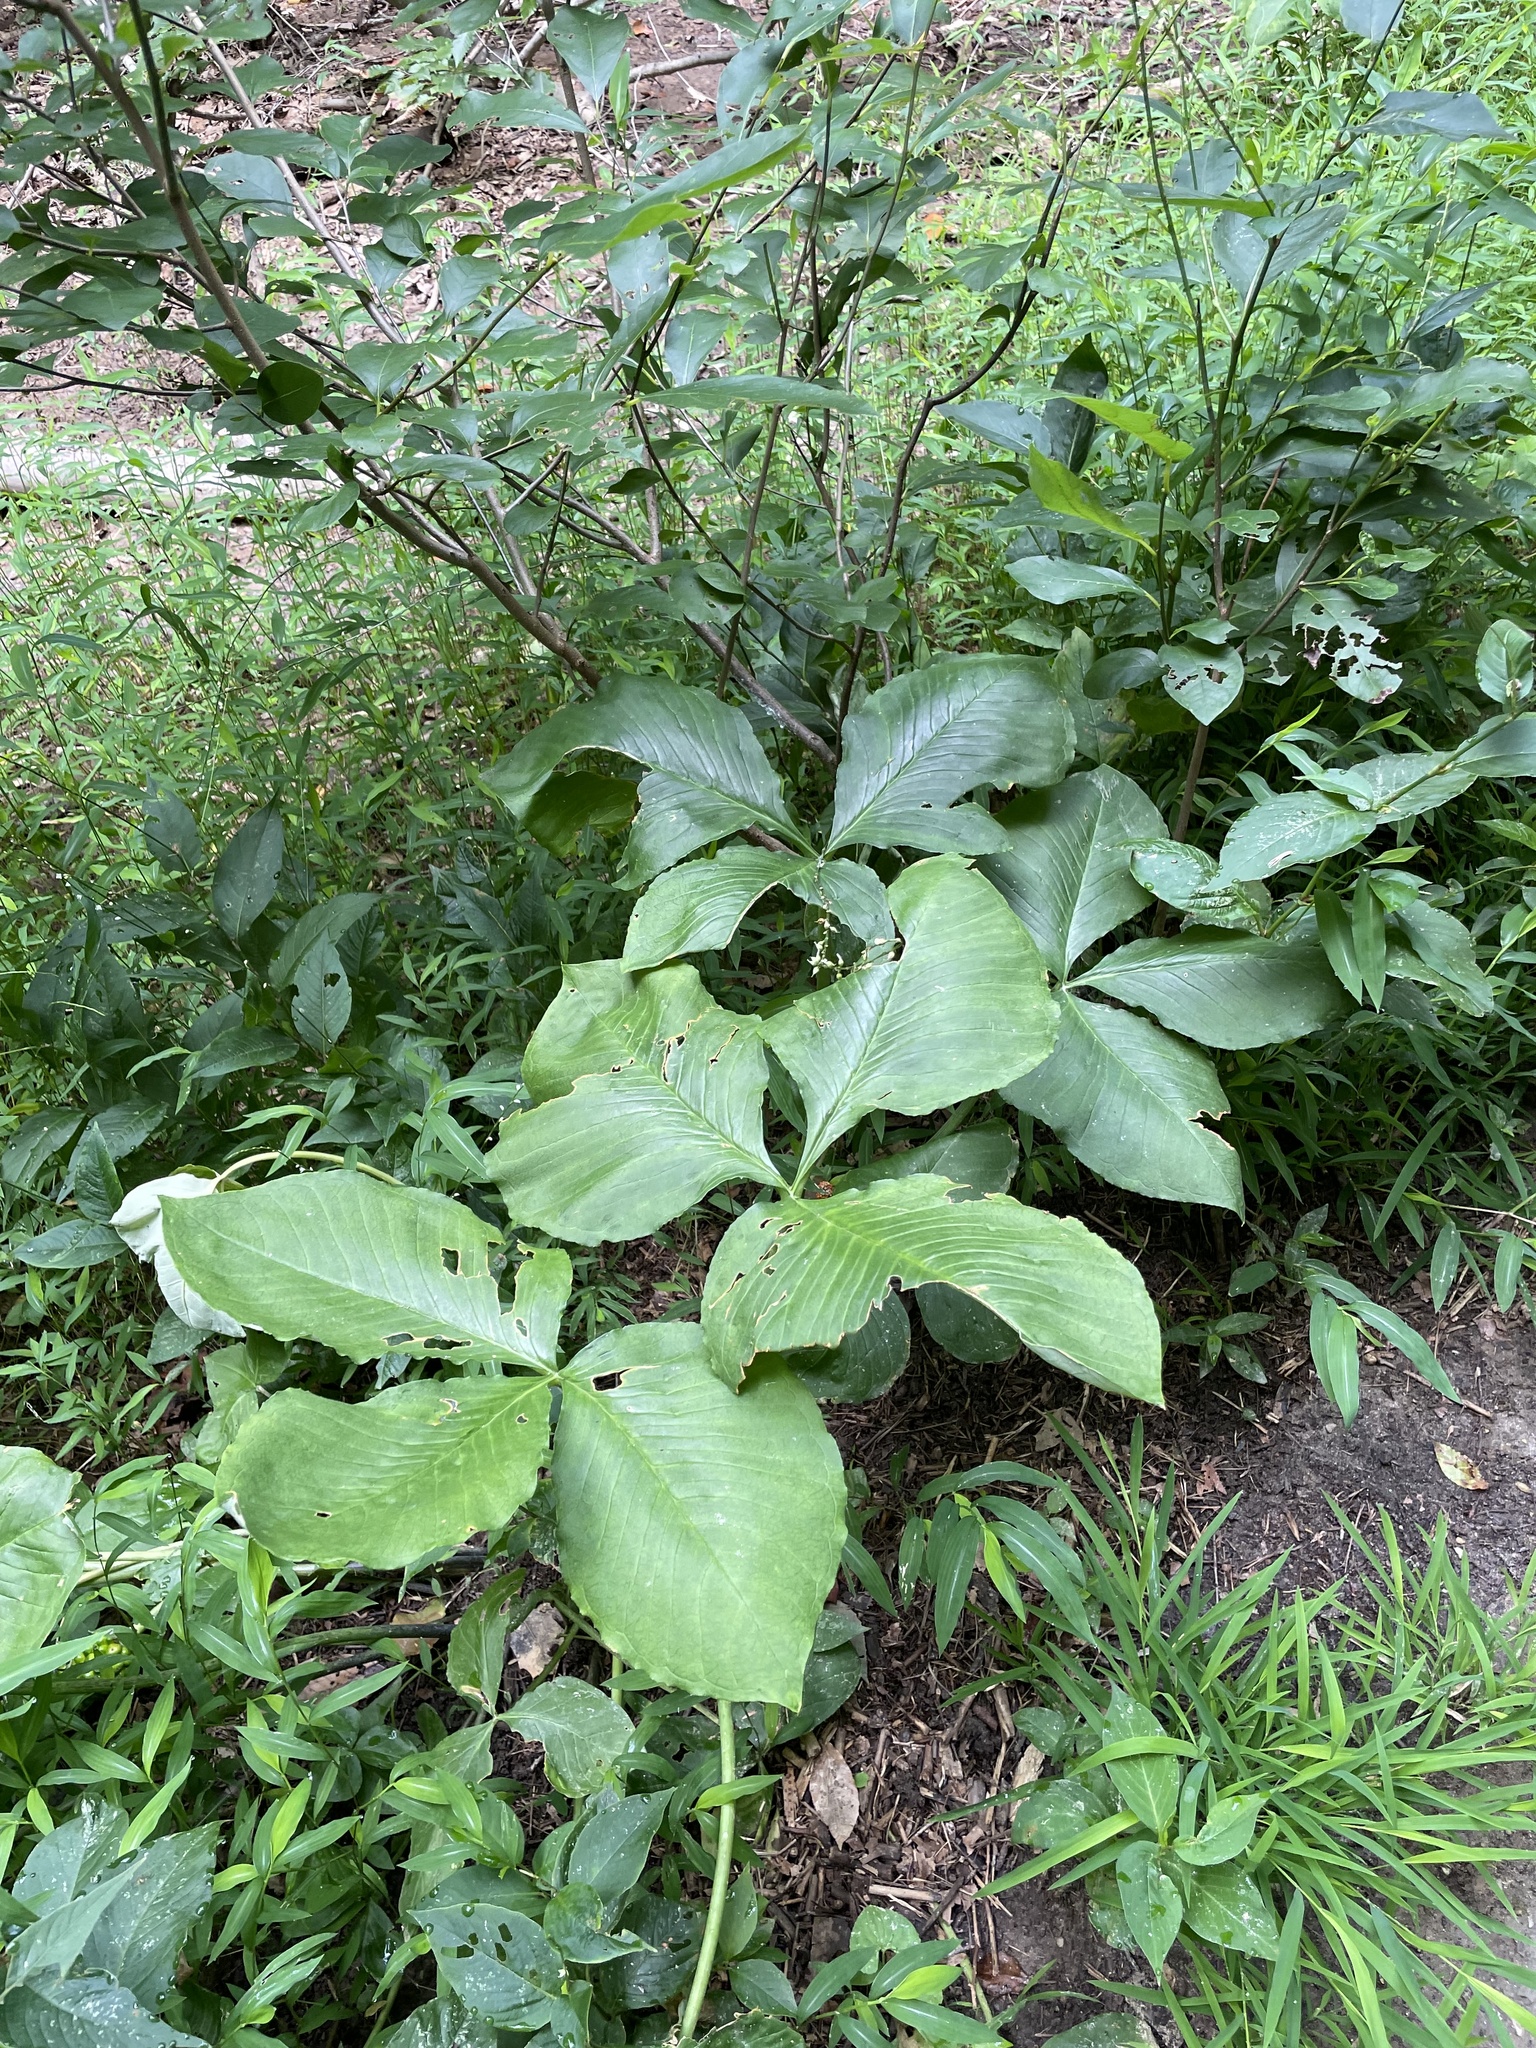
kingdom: Plantae
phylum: Tracheophyta
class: Liliopsida
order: Alismatales
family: Araceae
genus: Arisaema
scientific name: Arisaema triphyllum
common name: Jack-in-the-pulpit
